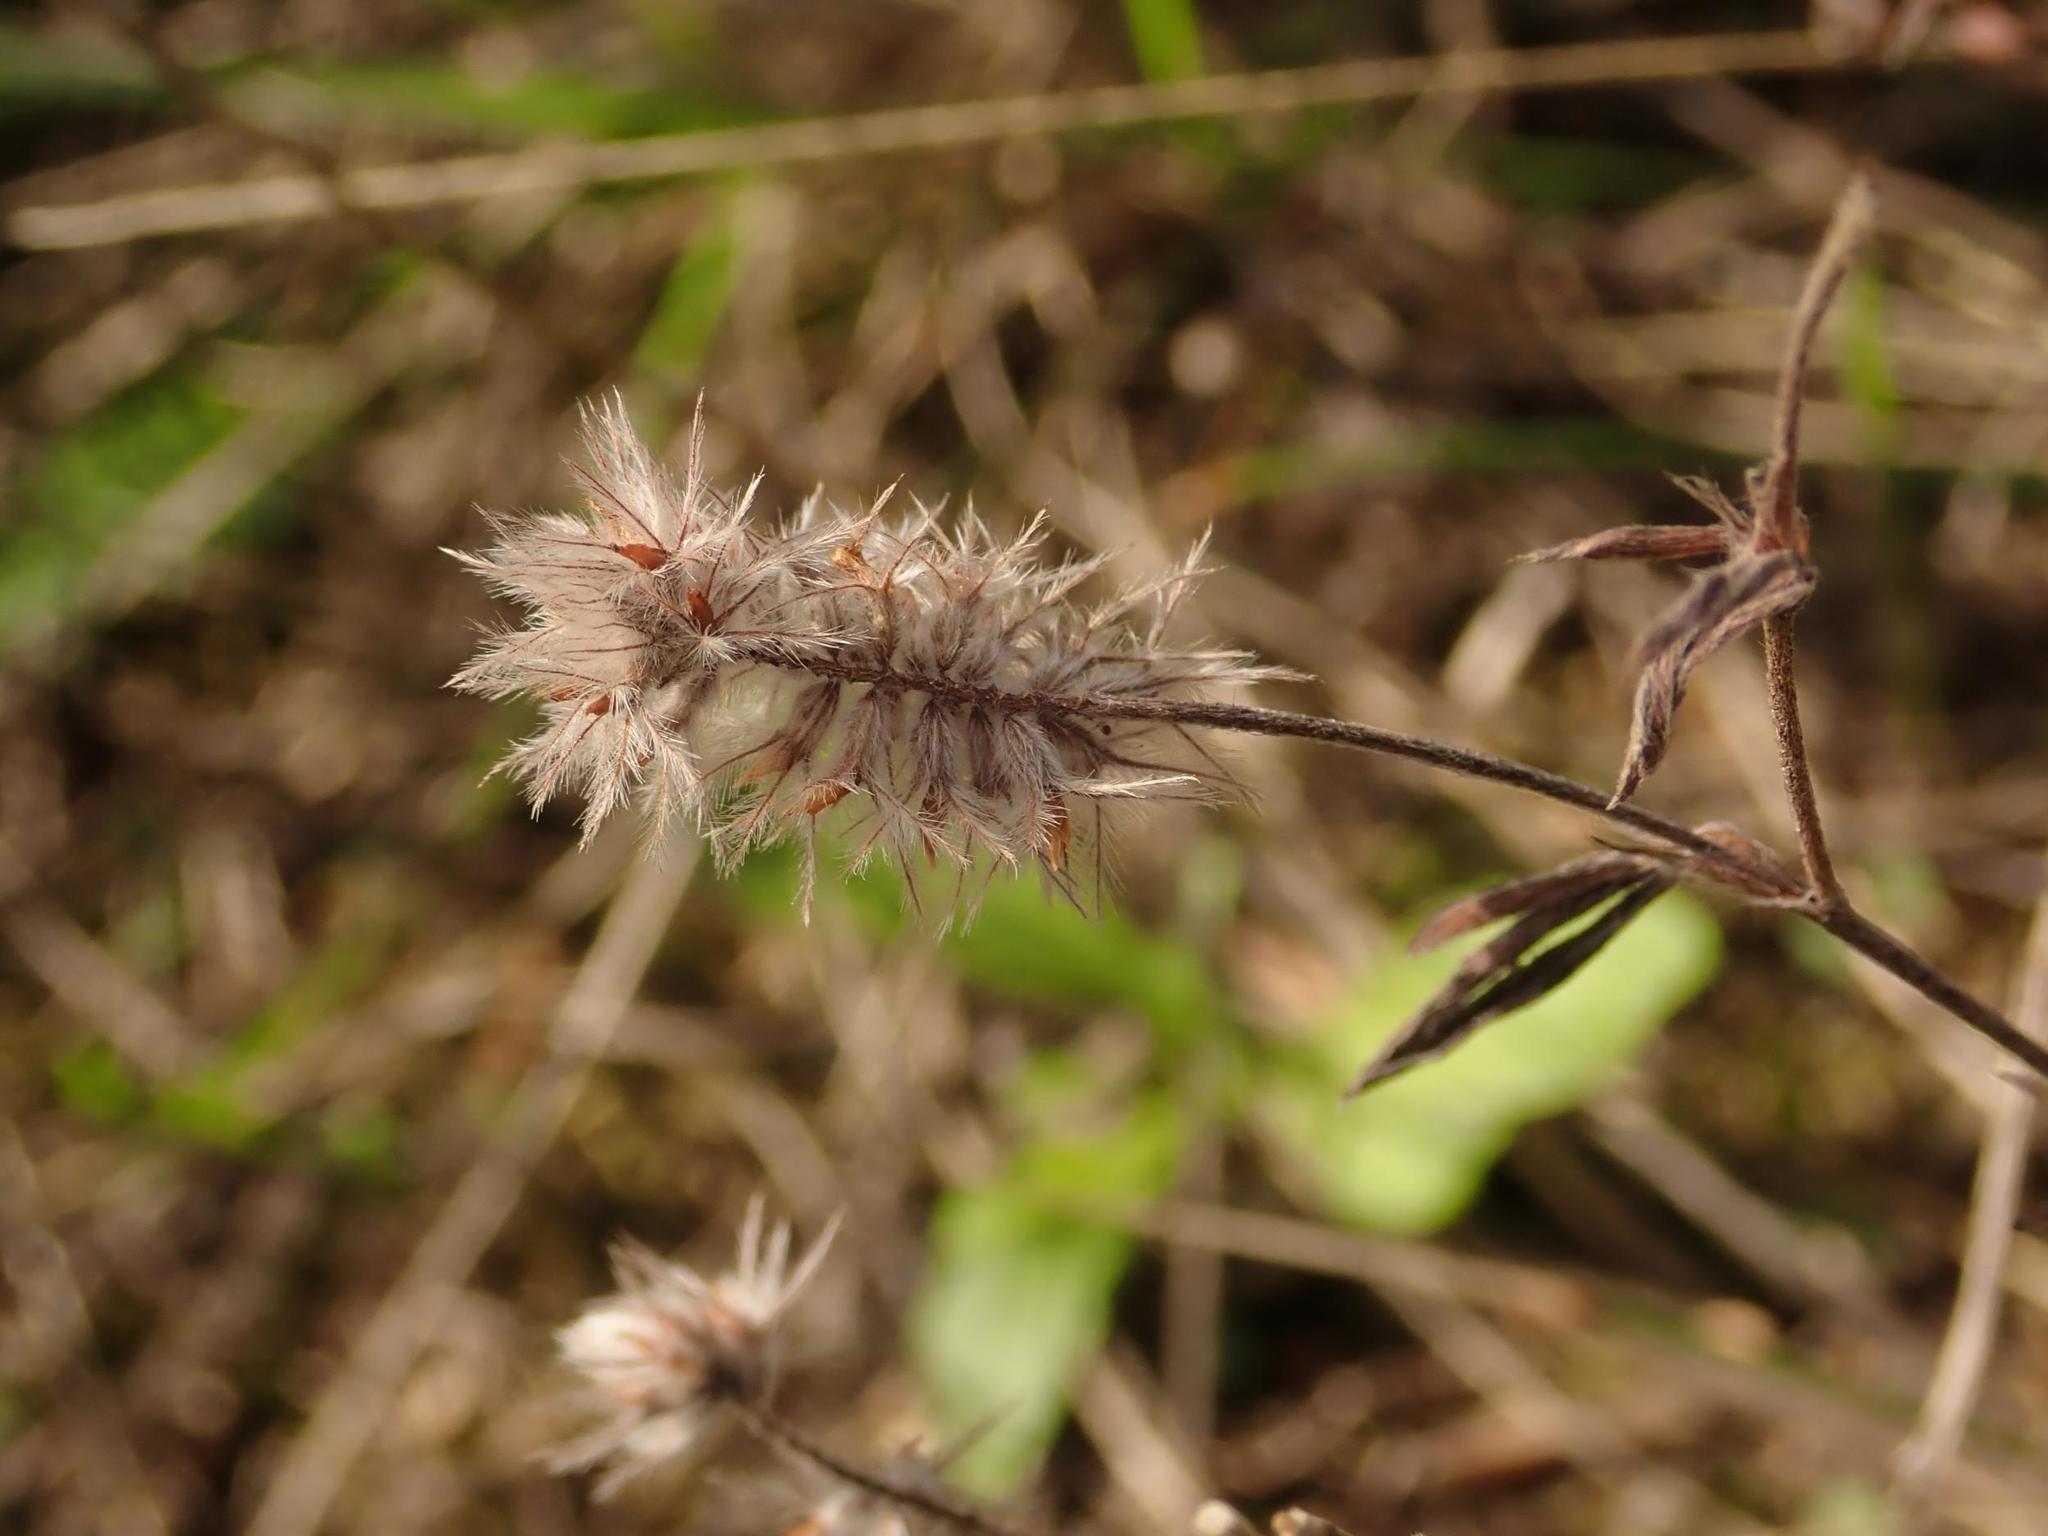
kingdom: Plantae
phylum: Tracheophyta
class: Magnoliopsida
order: Fabales
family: Fabaceae
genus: Trifolium
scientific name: Trifolium arvense
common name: Hare's-foot clover
